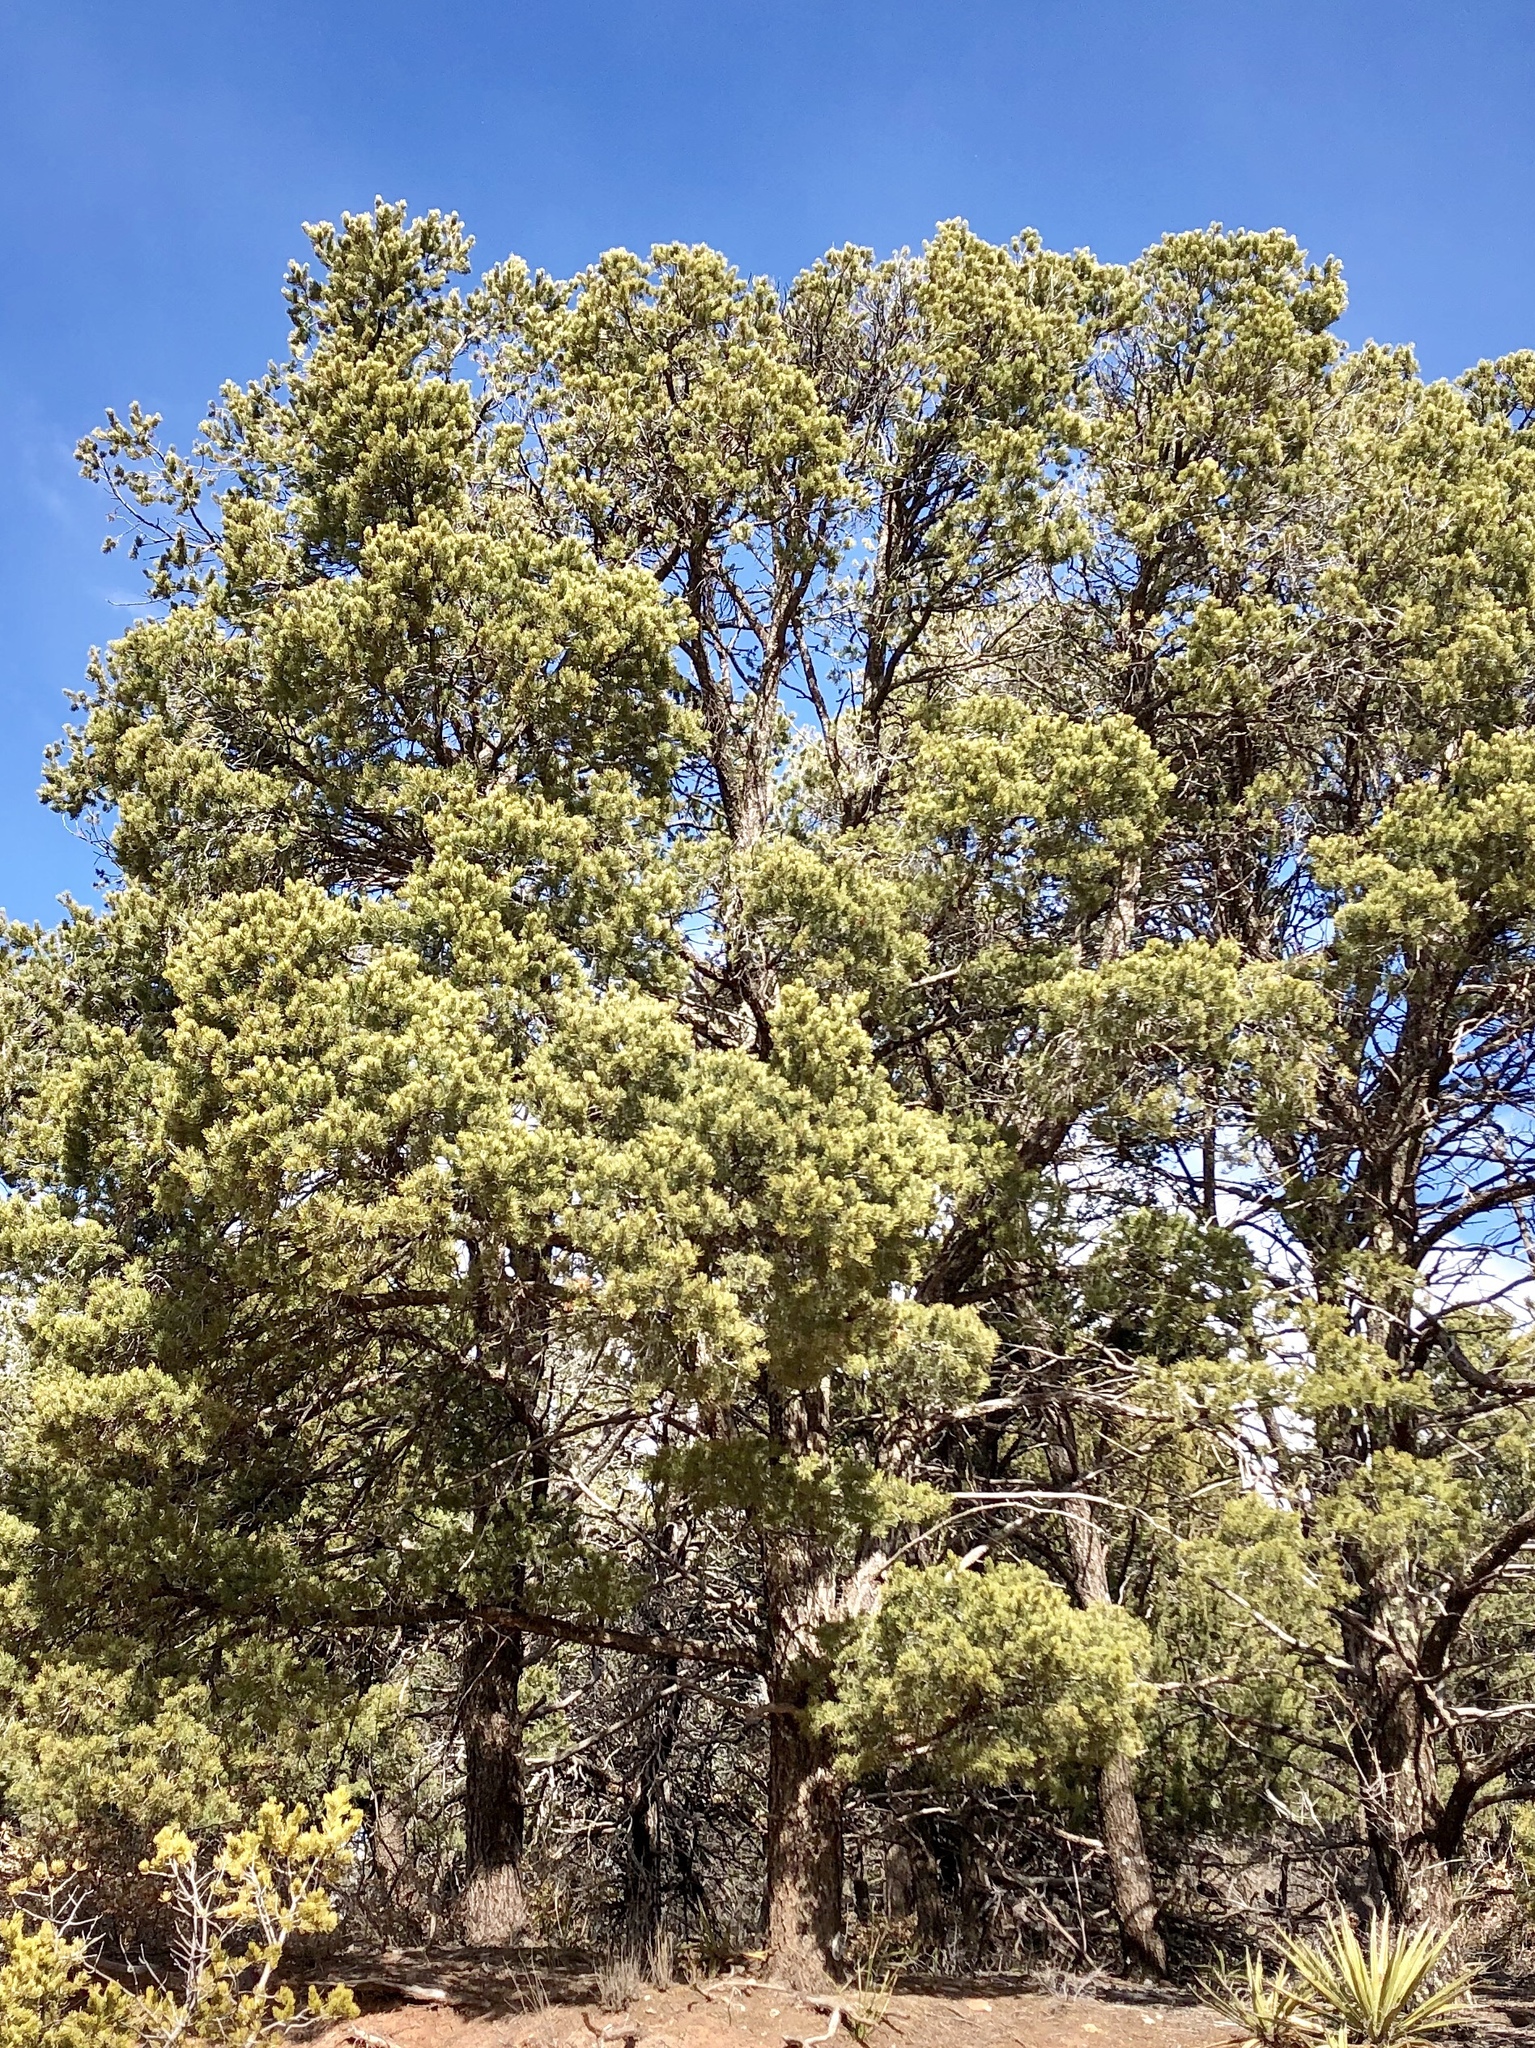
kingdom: Plantae
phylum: Tracheophyta
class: Pinopsida
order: Pinales
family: Pinaceae
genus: Pinus
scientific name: Pinus edulis
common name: Colorado pinyon
